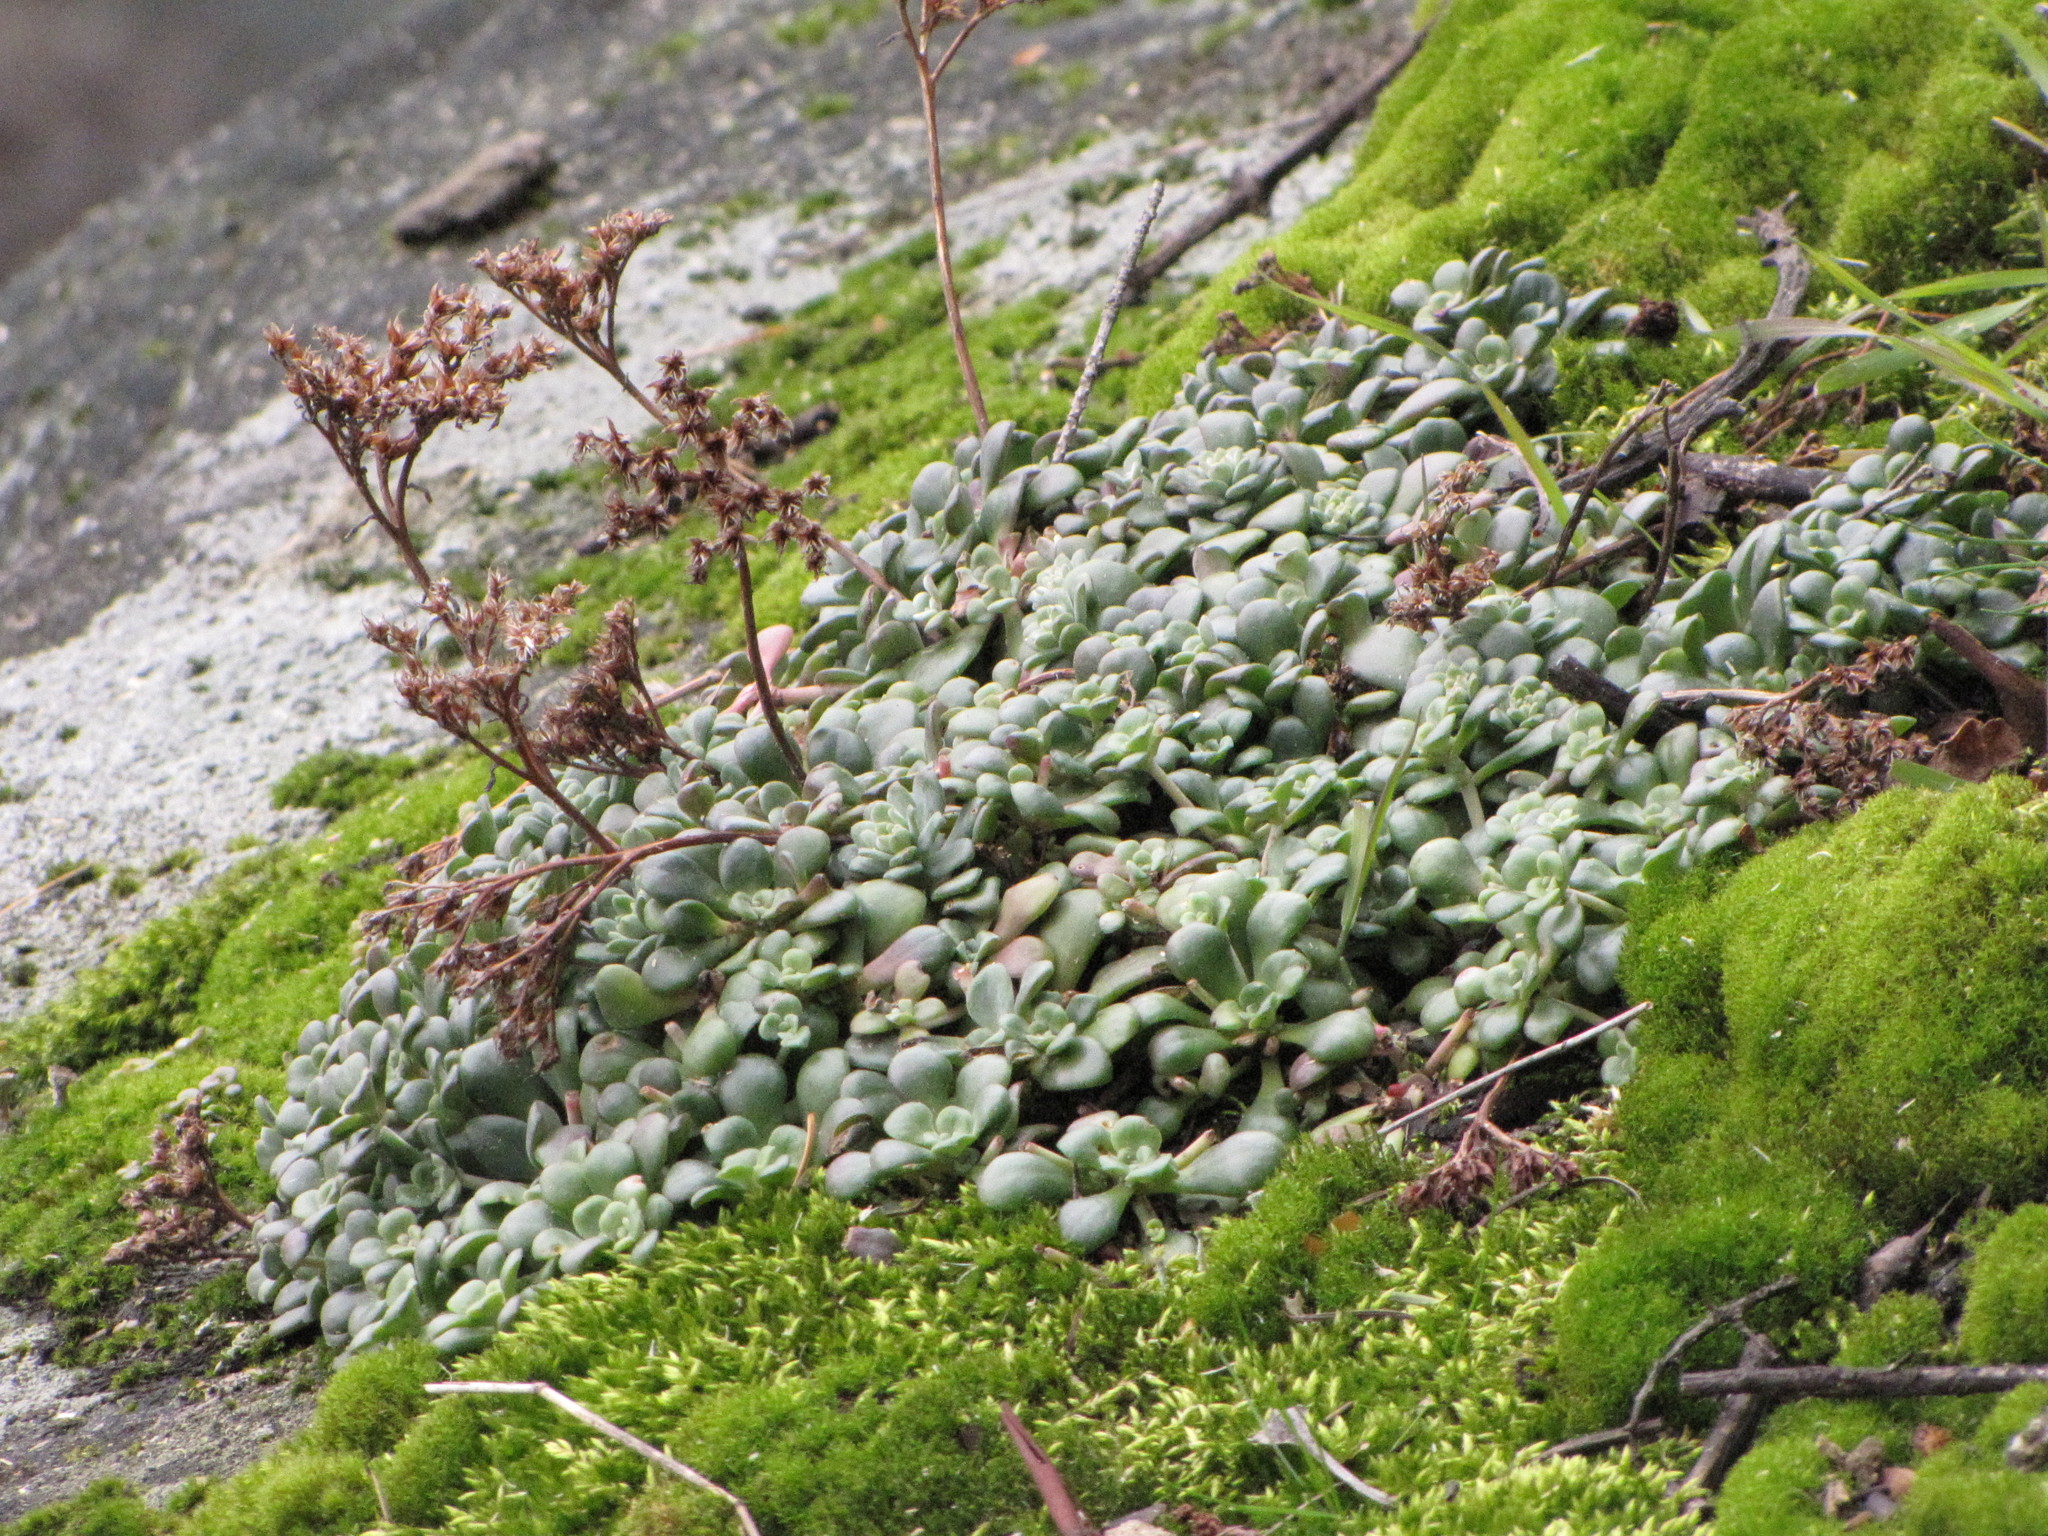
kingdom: Plantae
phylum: Tracheophyta
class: Magnoliopsida
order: Saxifragales
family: Crassulaceae
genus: Sedum
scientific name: Sedum spathulifolium
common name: Colorado stonecrop
